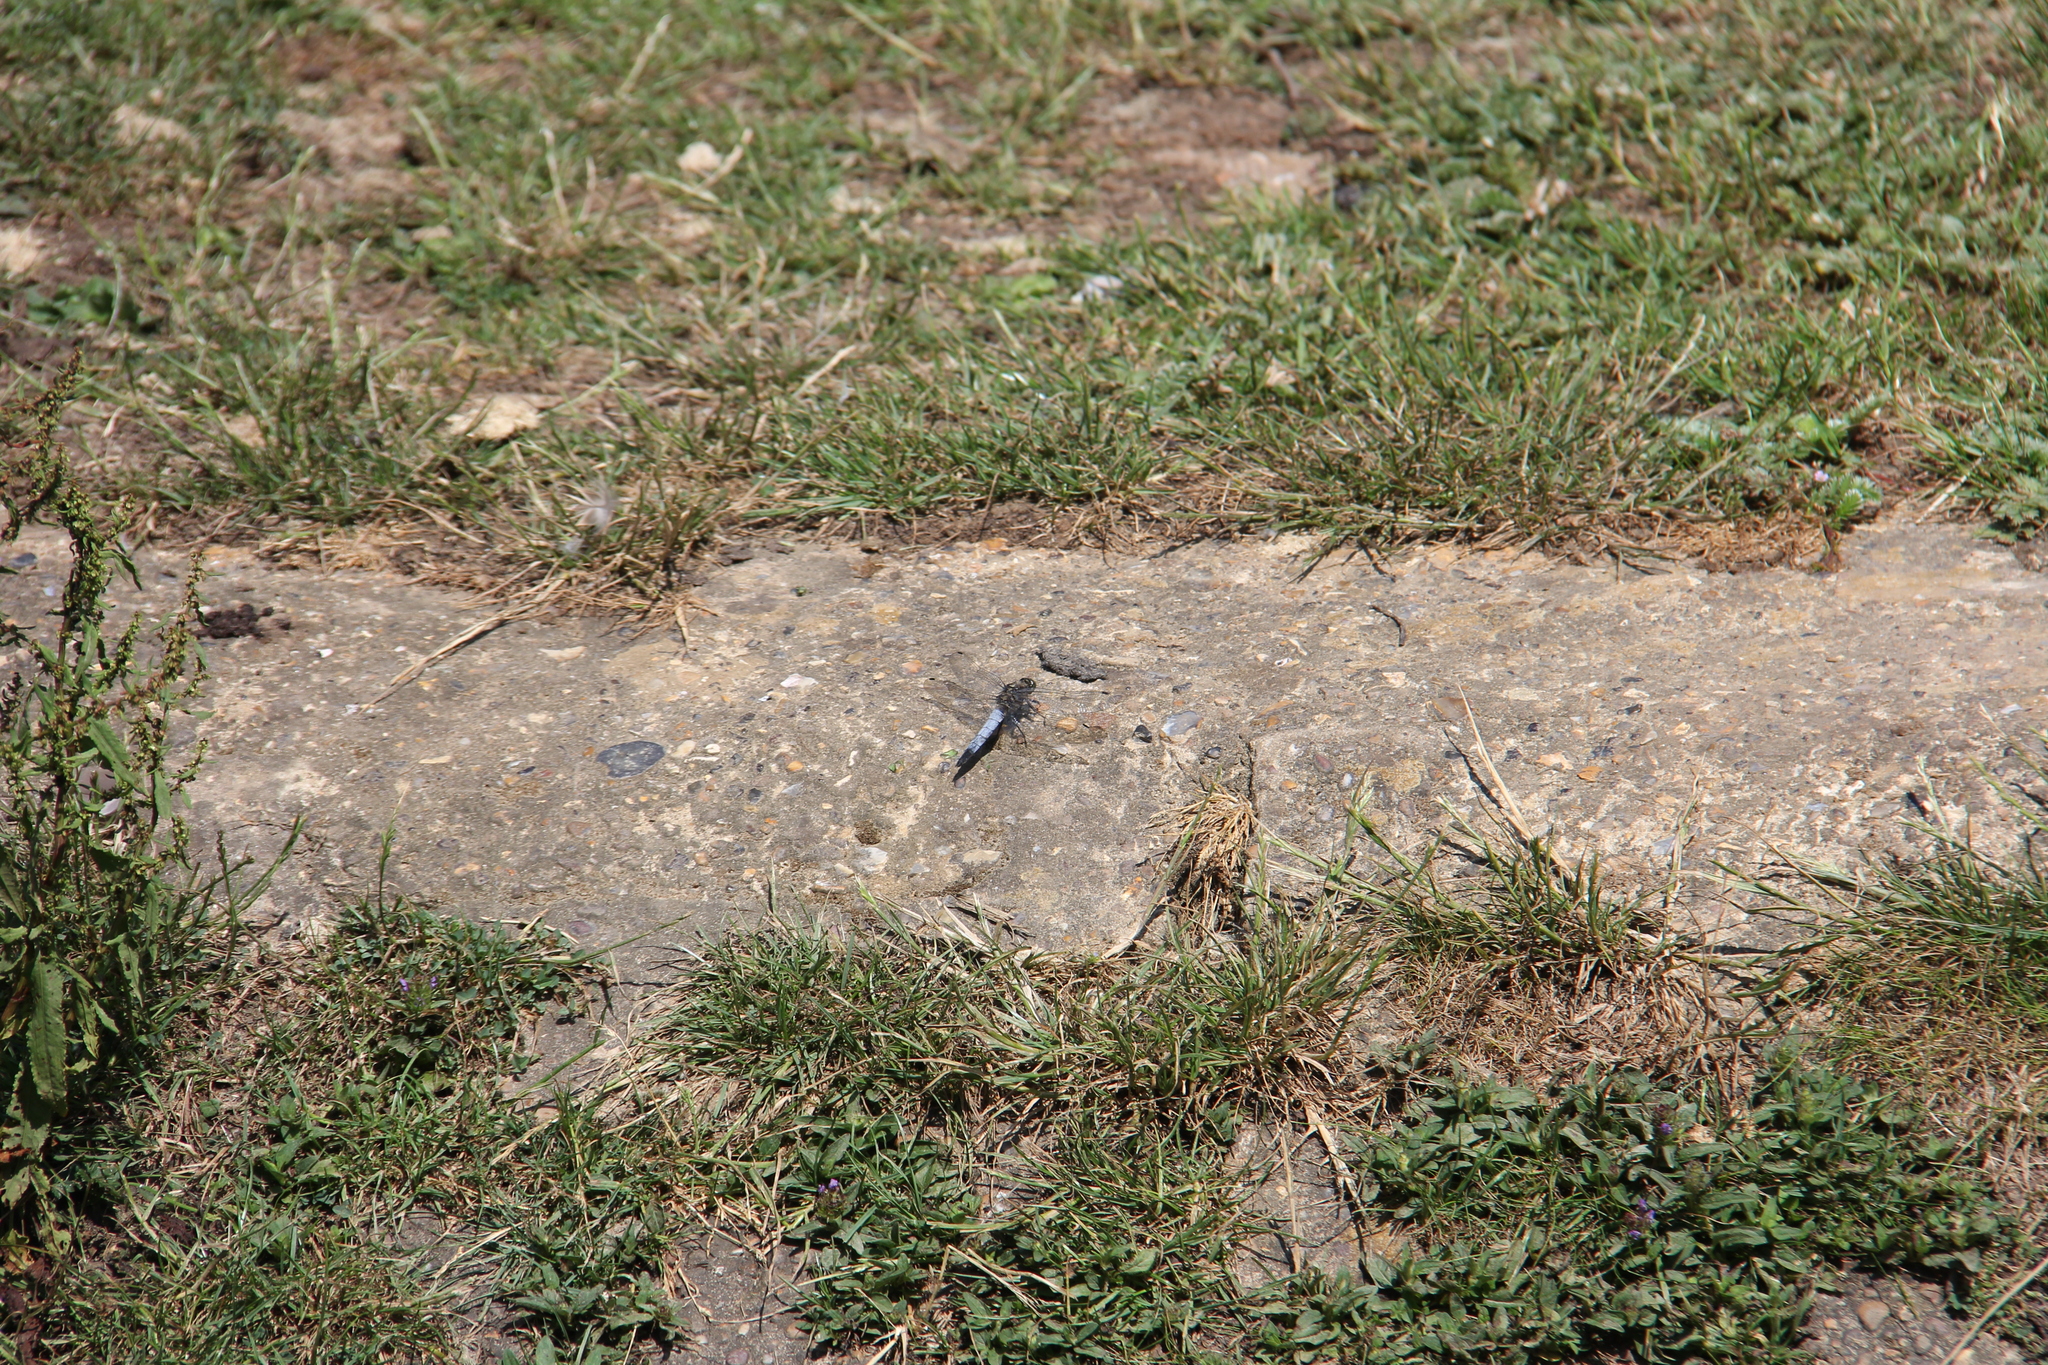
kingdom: Animalia
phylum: Arthropoda
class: Insecta
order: Odonata
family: Libellulidae
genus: Orthetrum
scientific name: Orthetrum cancellatum
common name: Black-tailed skimmer
